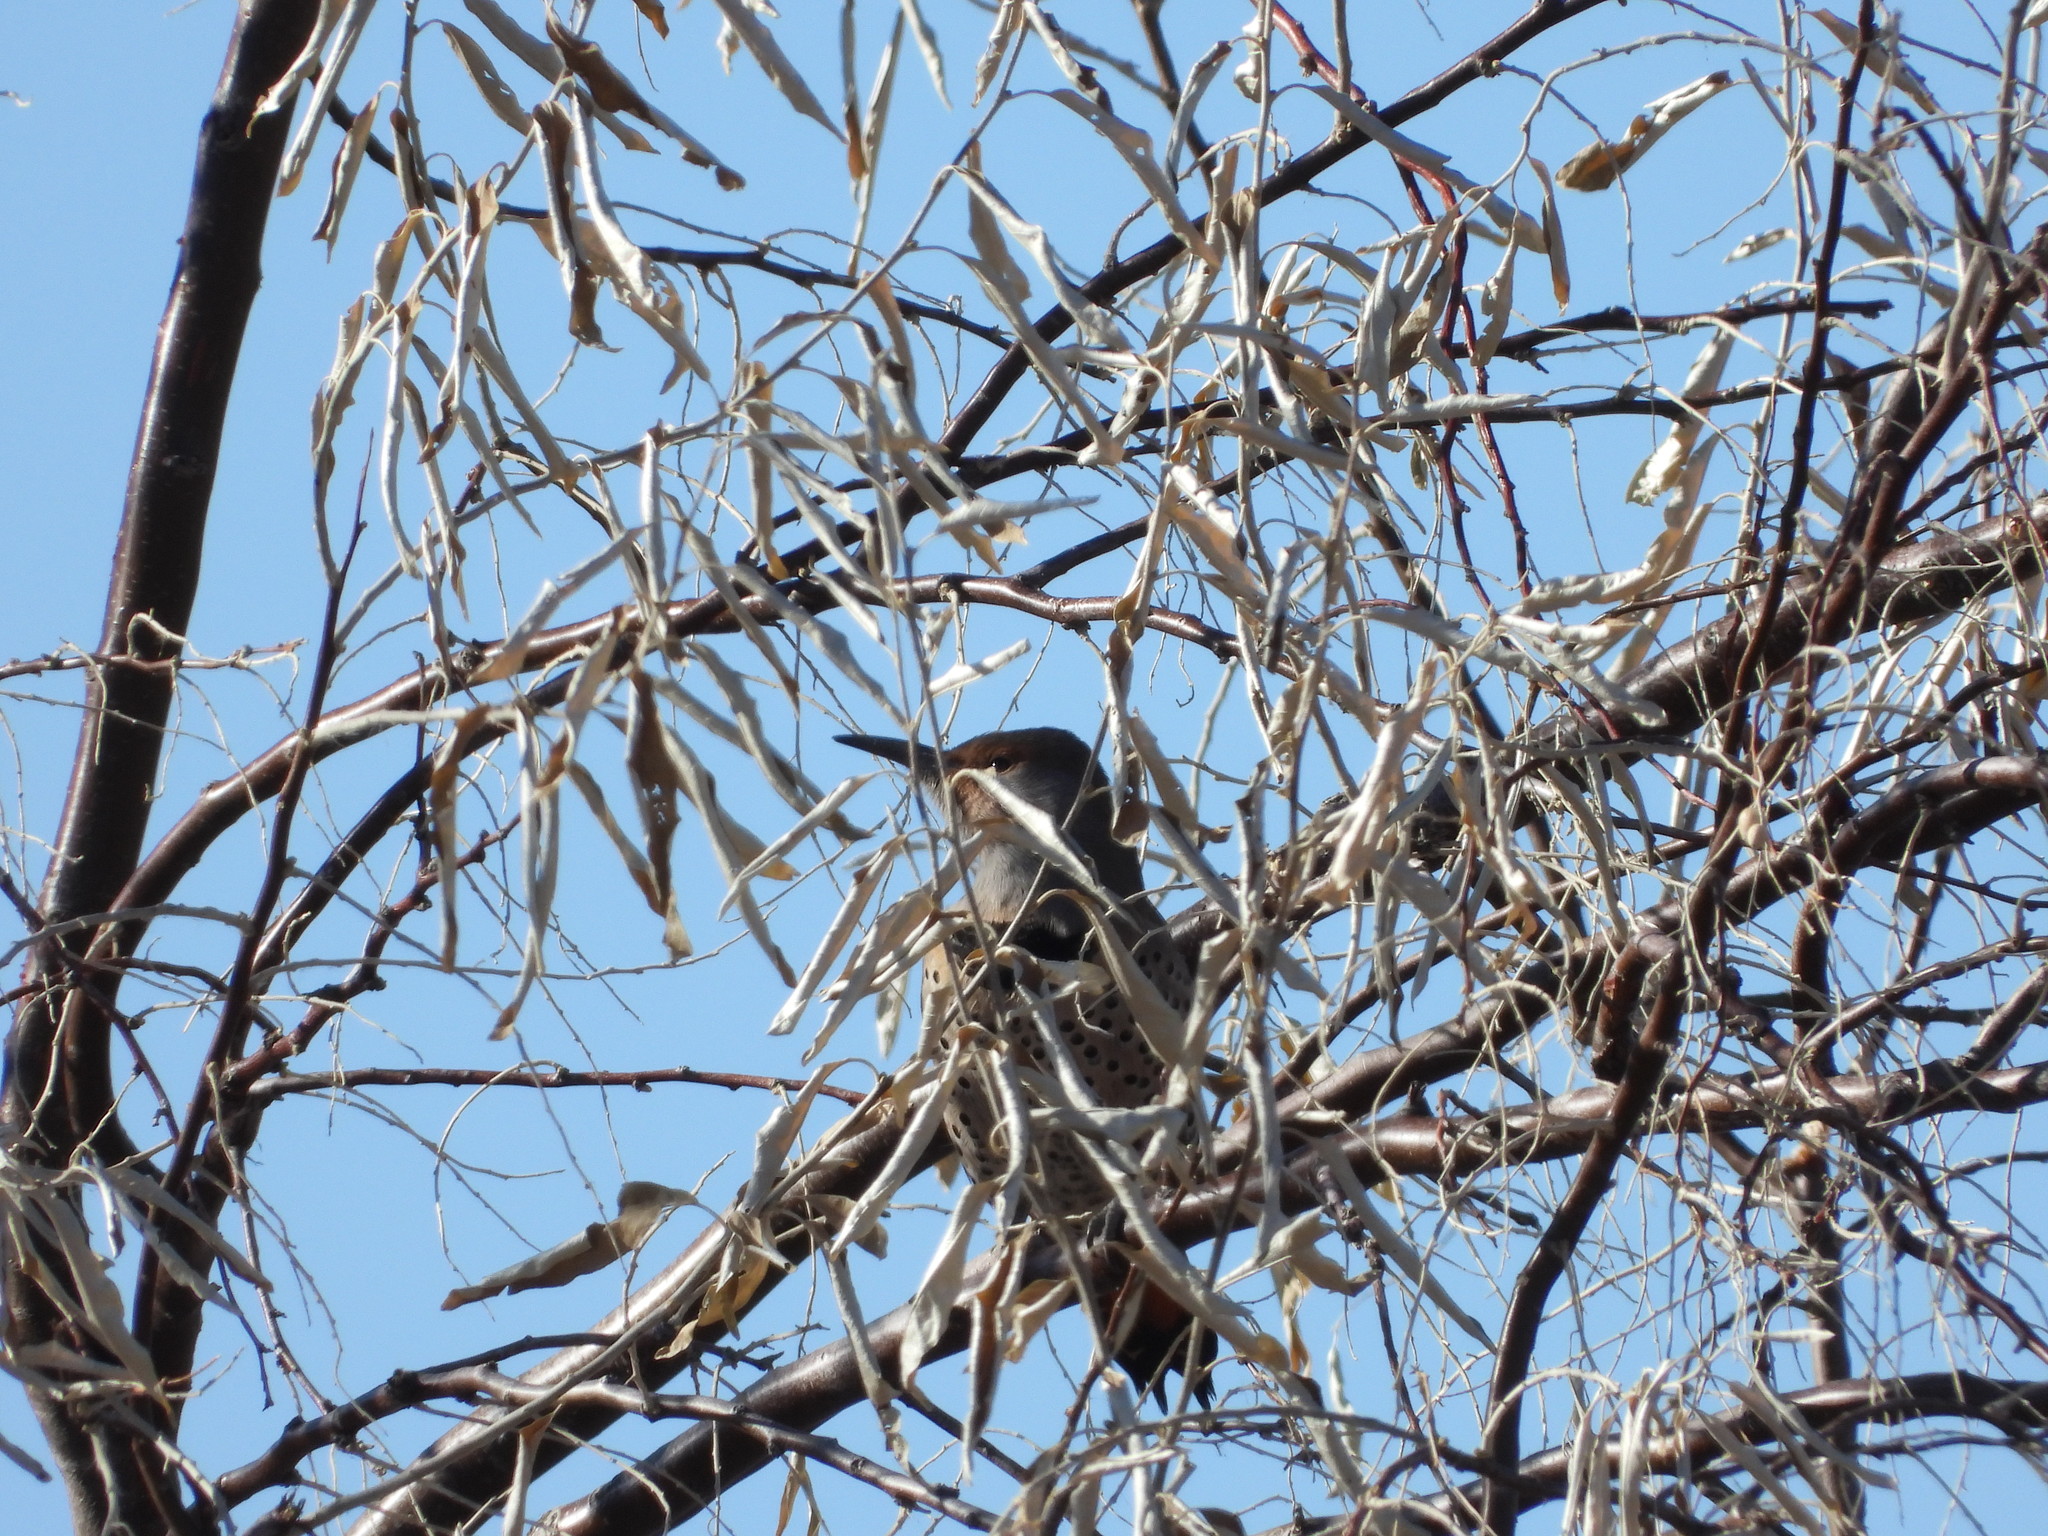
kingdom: Animalia
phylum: Chordata
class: Aves
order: Piciformes
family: Picidae
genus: Colaptes
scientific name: Colaptes auratus
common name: Northern flicker
